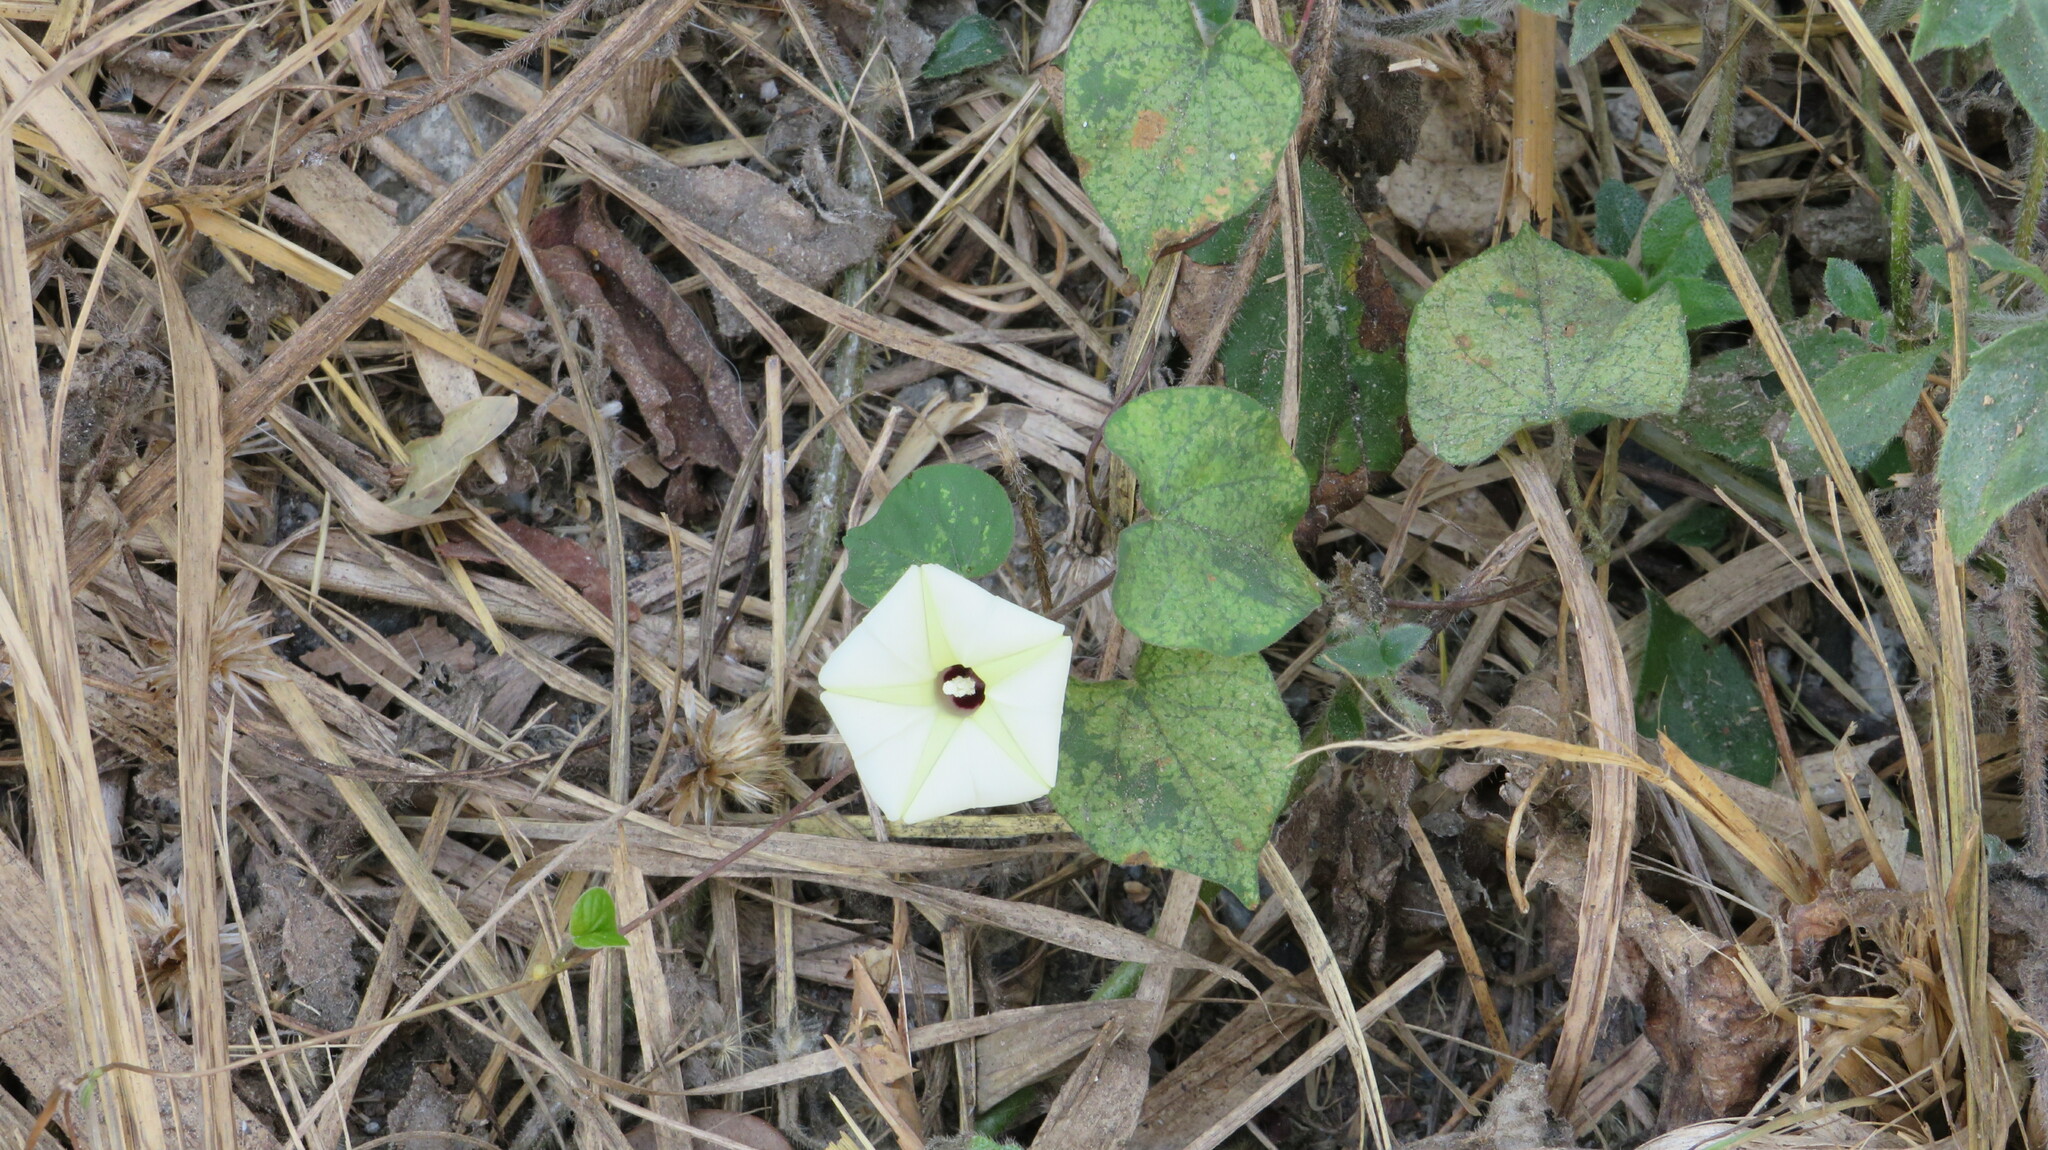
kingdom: Plantae
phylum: Tracheophyta
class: Magnoliopsida
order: Solanales
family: Convolvulaceae
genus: Ipomoea
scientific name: Ipomoea obscura
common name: Obscure morning-glory
